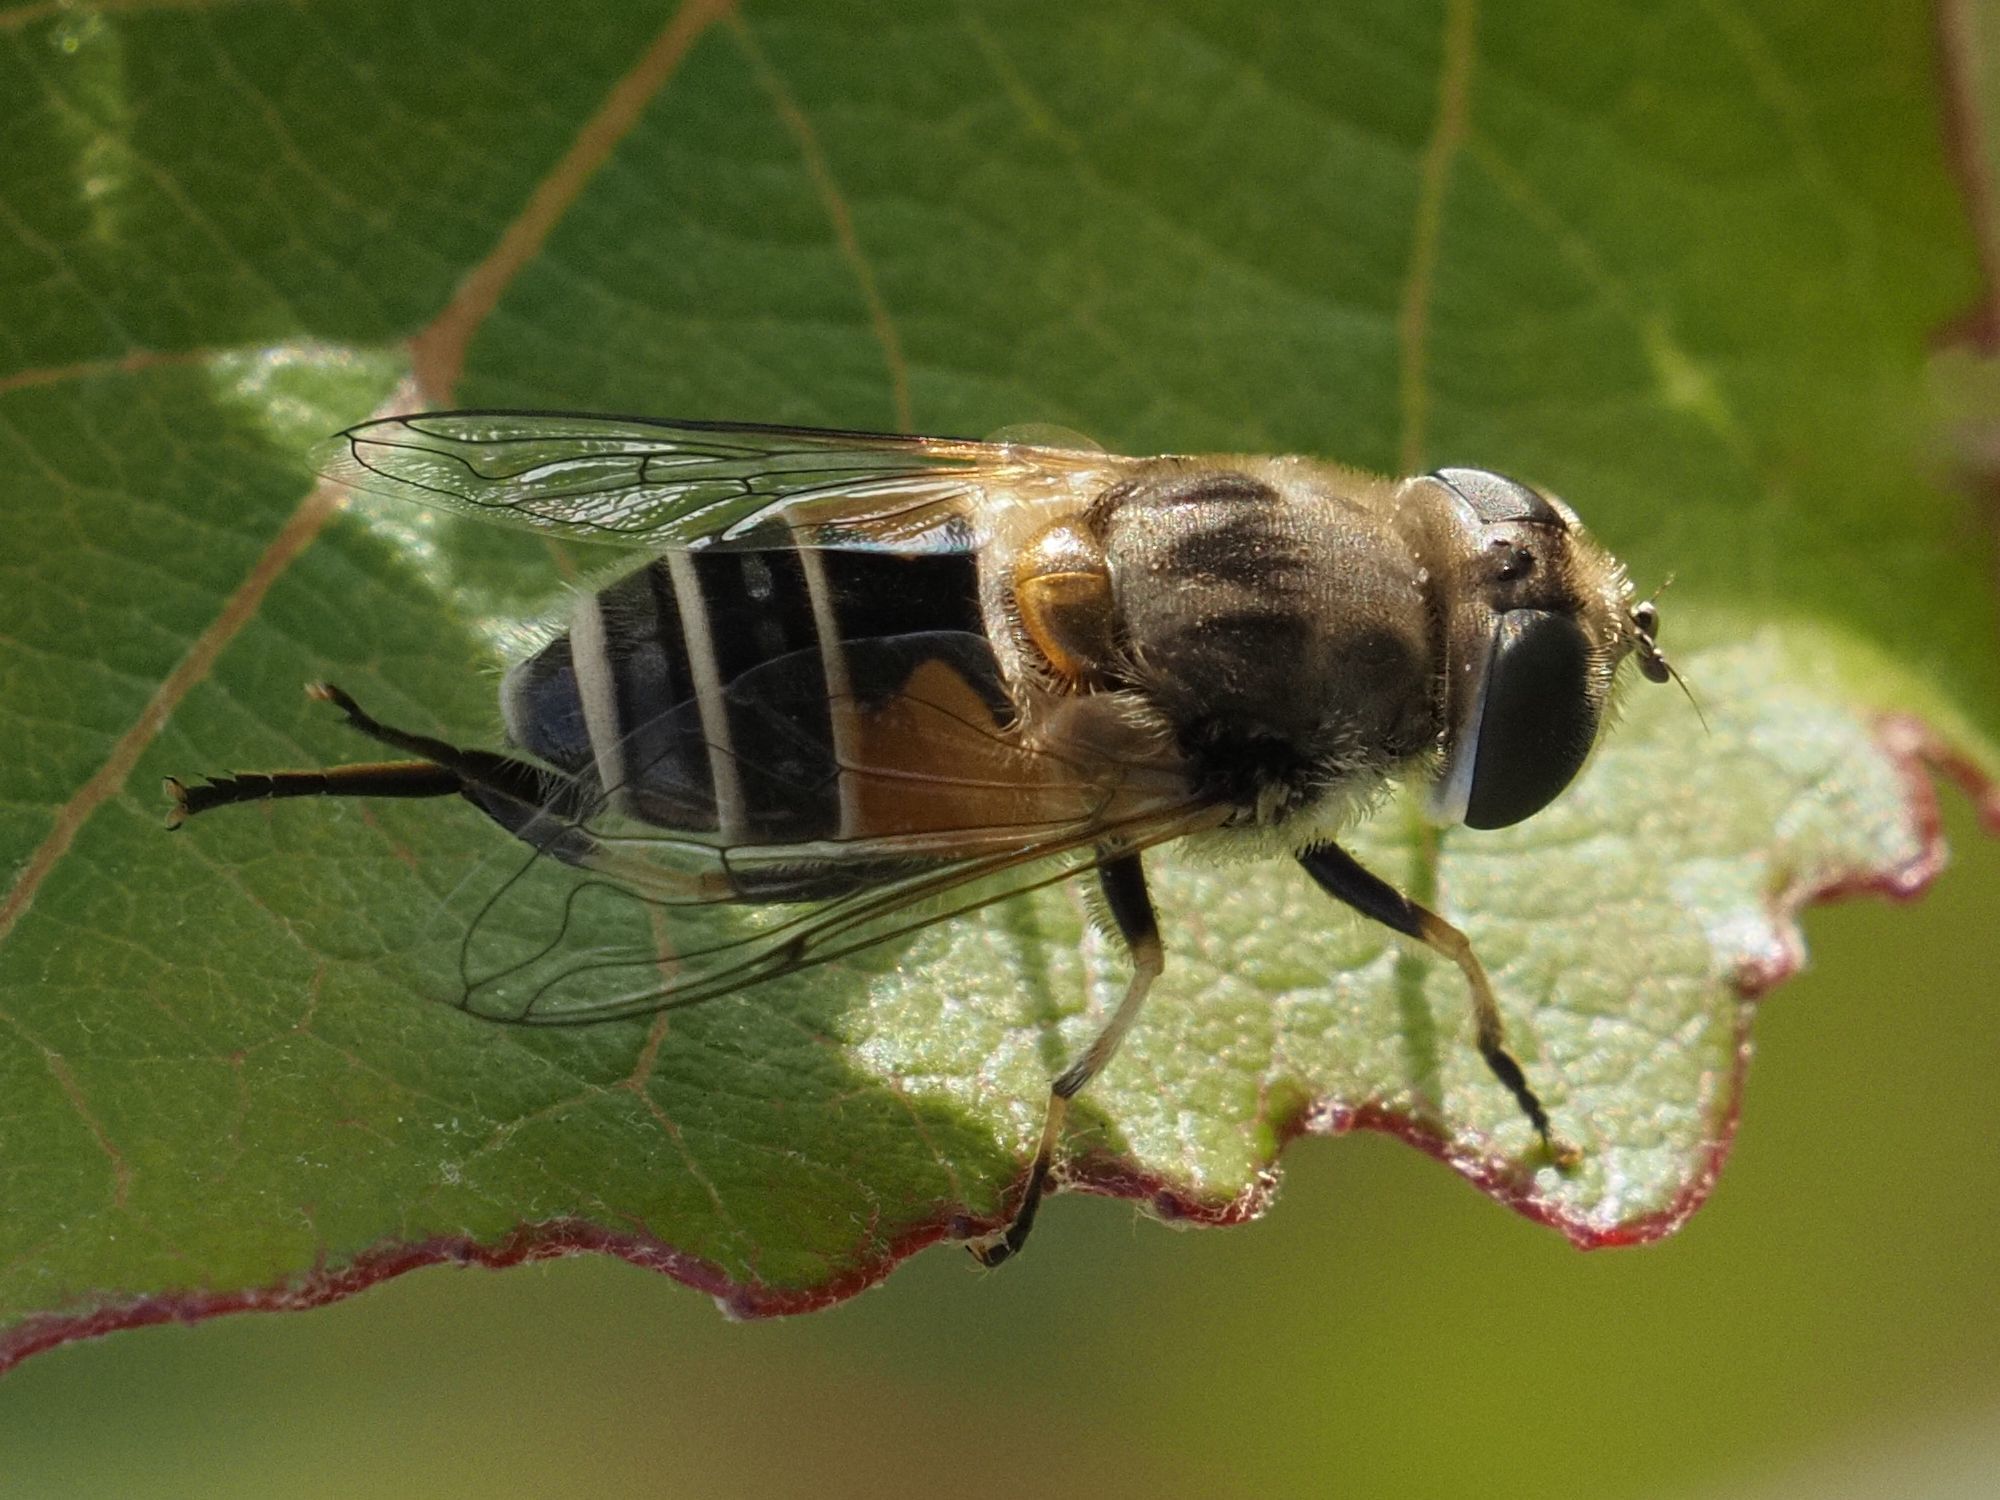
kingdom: Animalia
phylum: Arthropoda
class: Insecta
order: Diptera
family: Syrphidae
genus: Eristalis
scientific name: Eristalis arbustorum
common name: Hover fly
